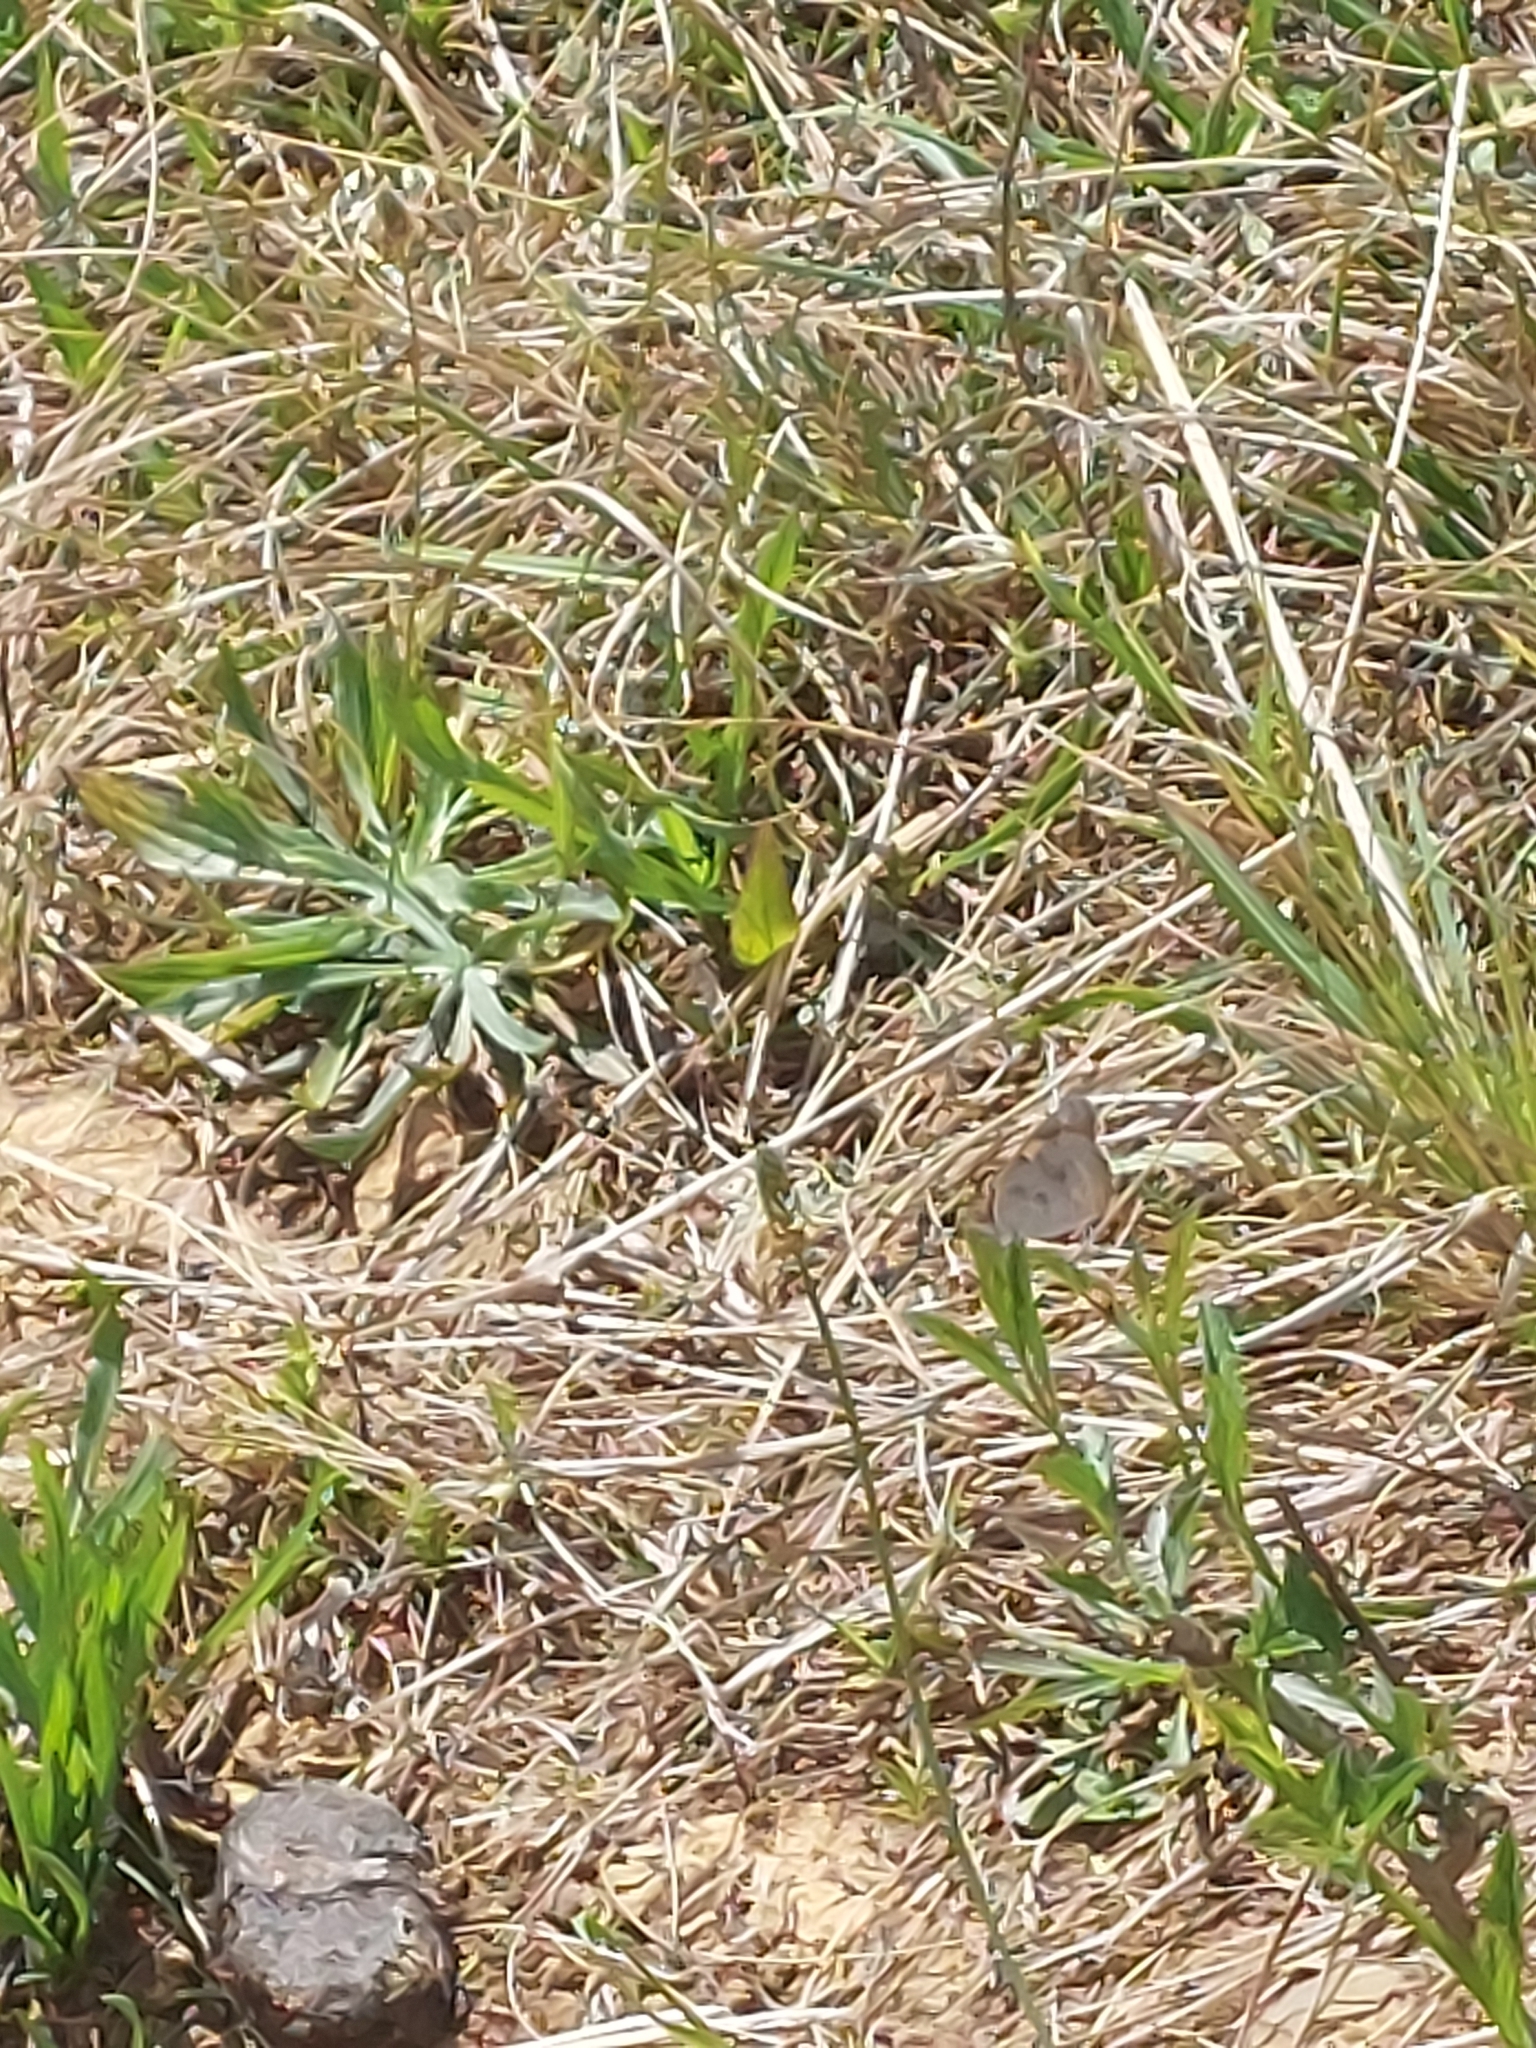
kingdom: Animalia
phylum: Arthropoda
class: Insecta
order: Lepidoptera
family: Nymphalidae
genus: Junonia
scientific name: Junonia hierta
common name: Yellow pansy
